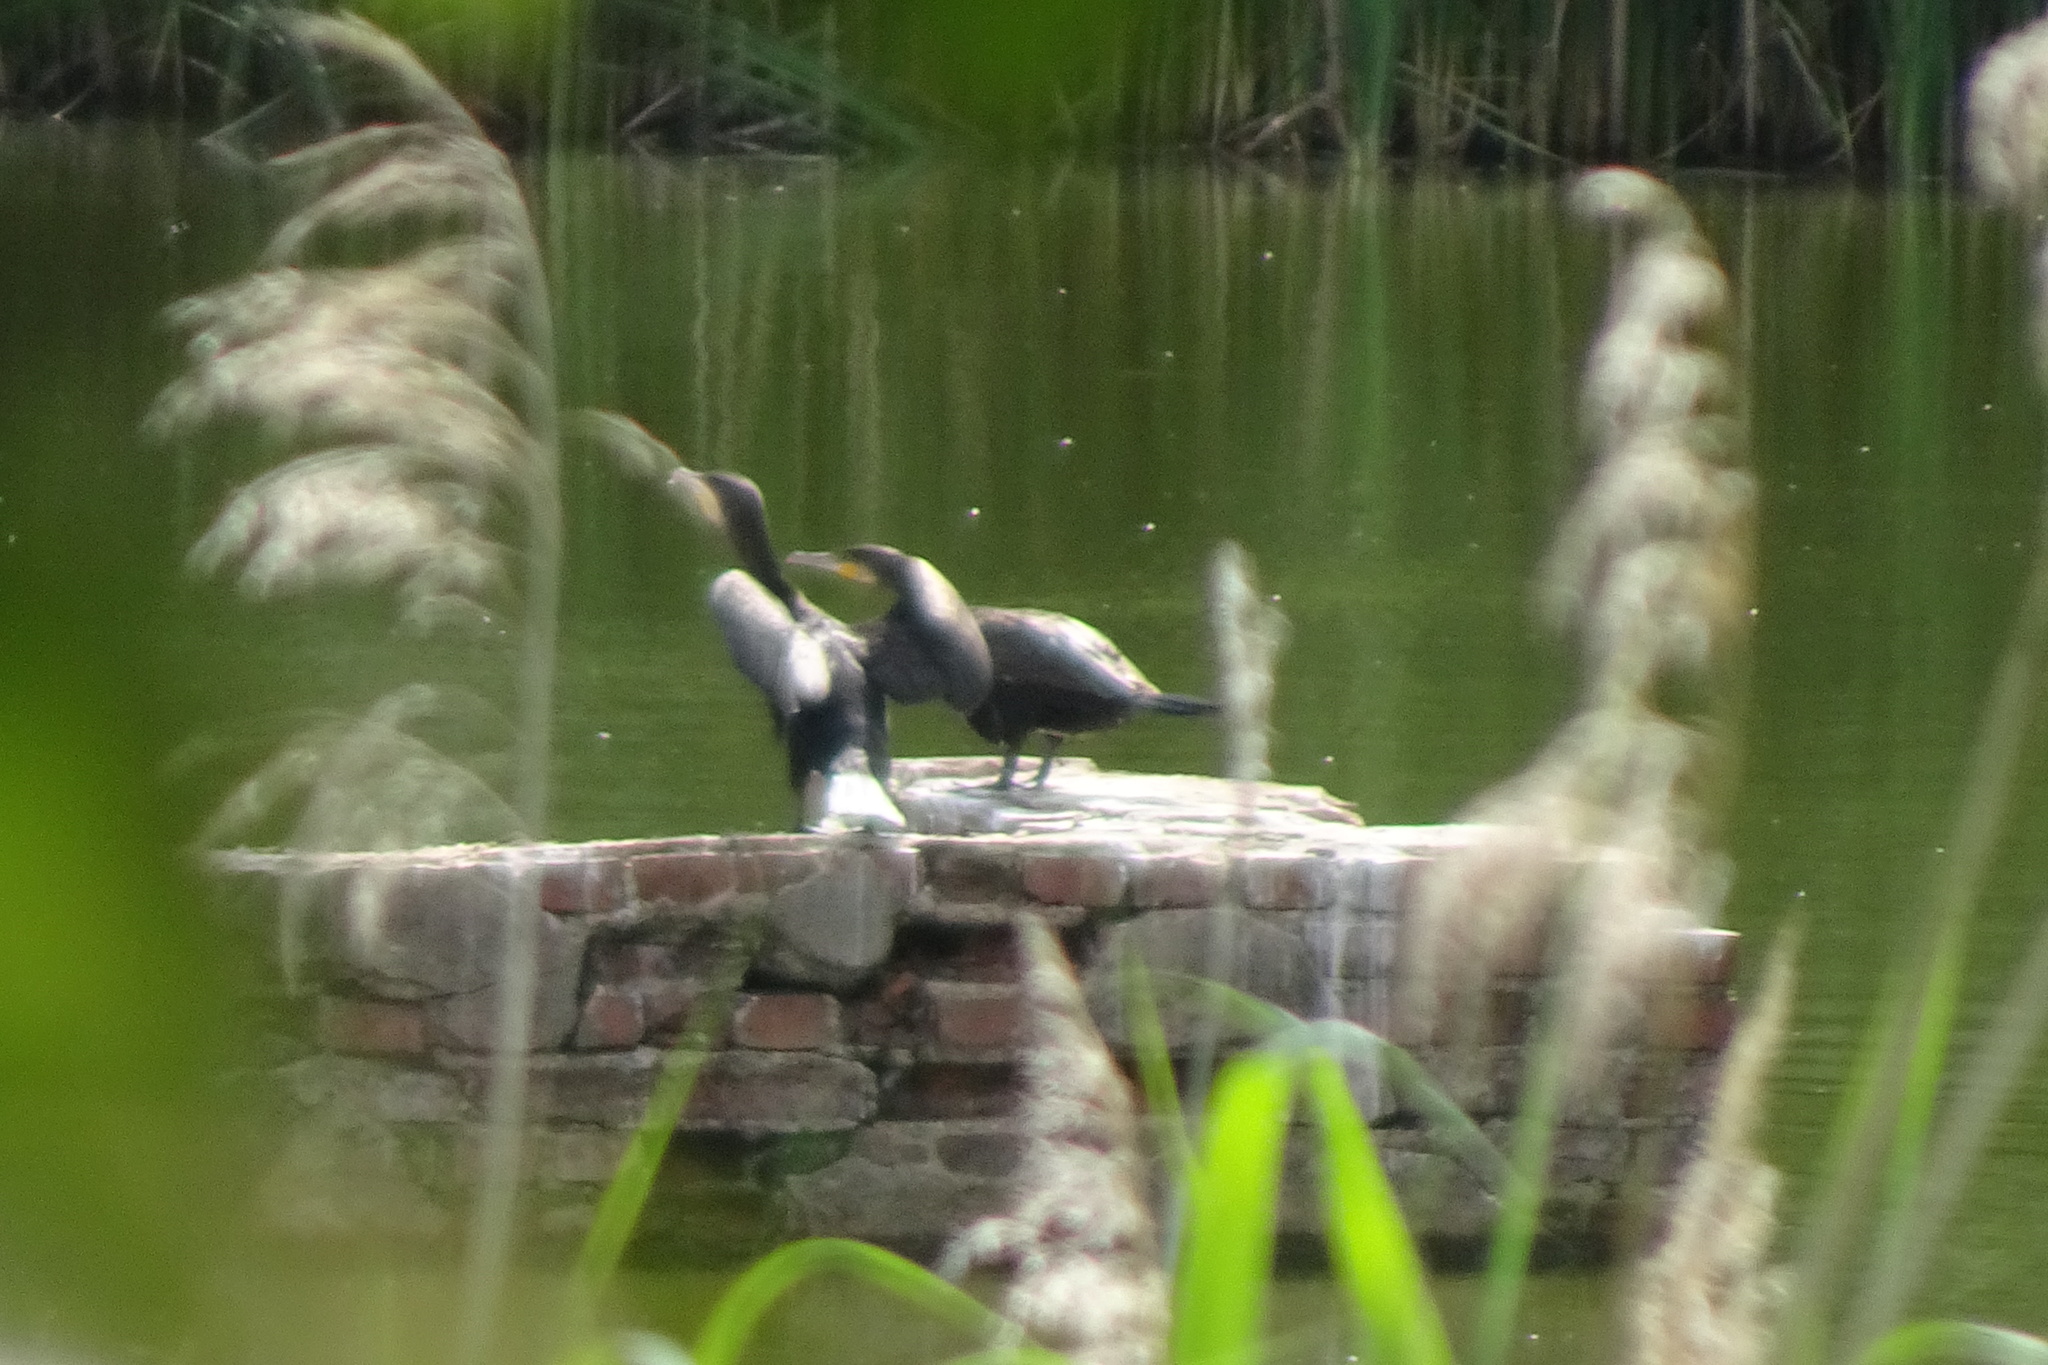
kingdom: Animalia
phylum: Chordata
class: Aves
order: Suliformes
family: Phalacrocoracidae
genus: Phalacrocorax
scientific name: Phalacrocorax carbo
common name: Great cormorant
